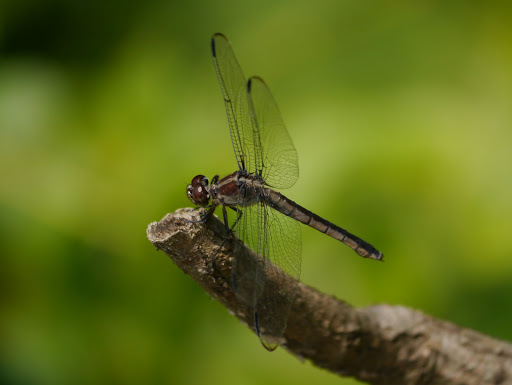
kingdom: Animalia
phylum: Arthropoda
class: Insecta
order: Odonata
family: Libellulidae
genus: Libellula
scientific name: Libellula incesta
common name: Slaty skimmer
